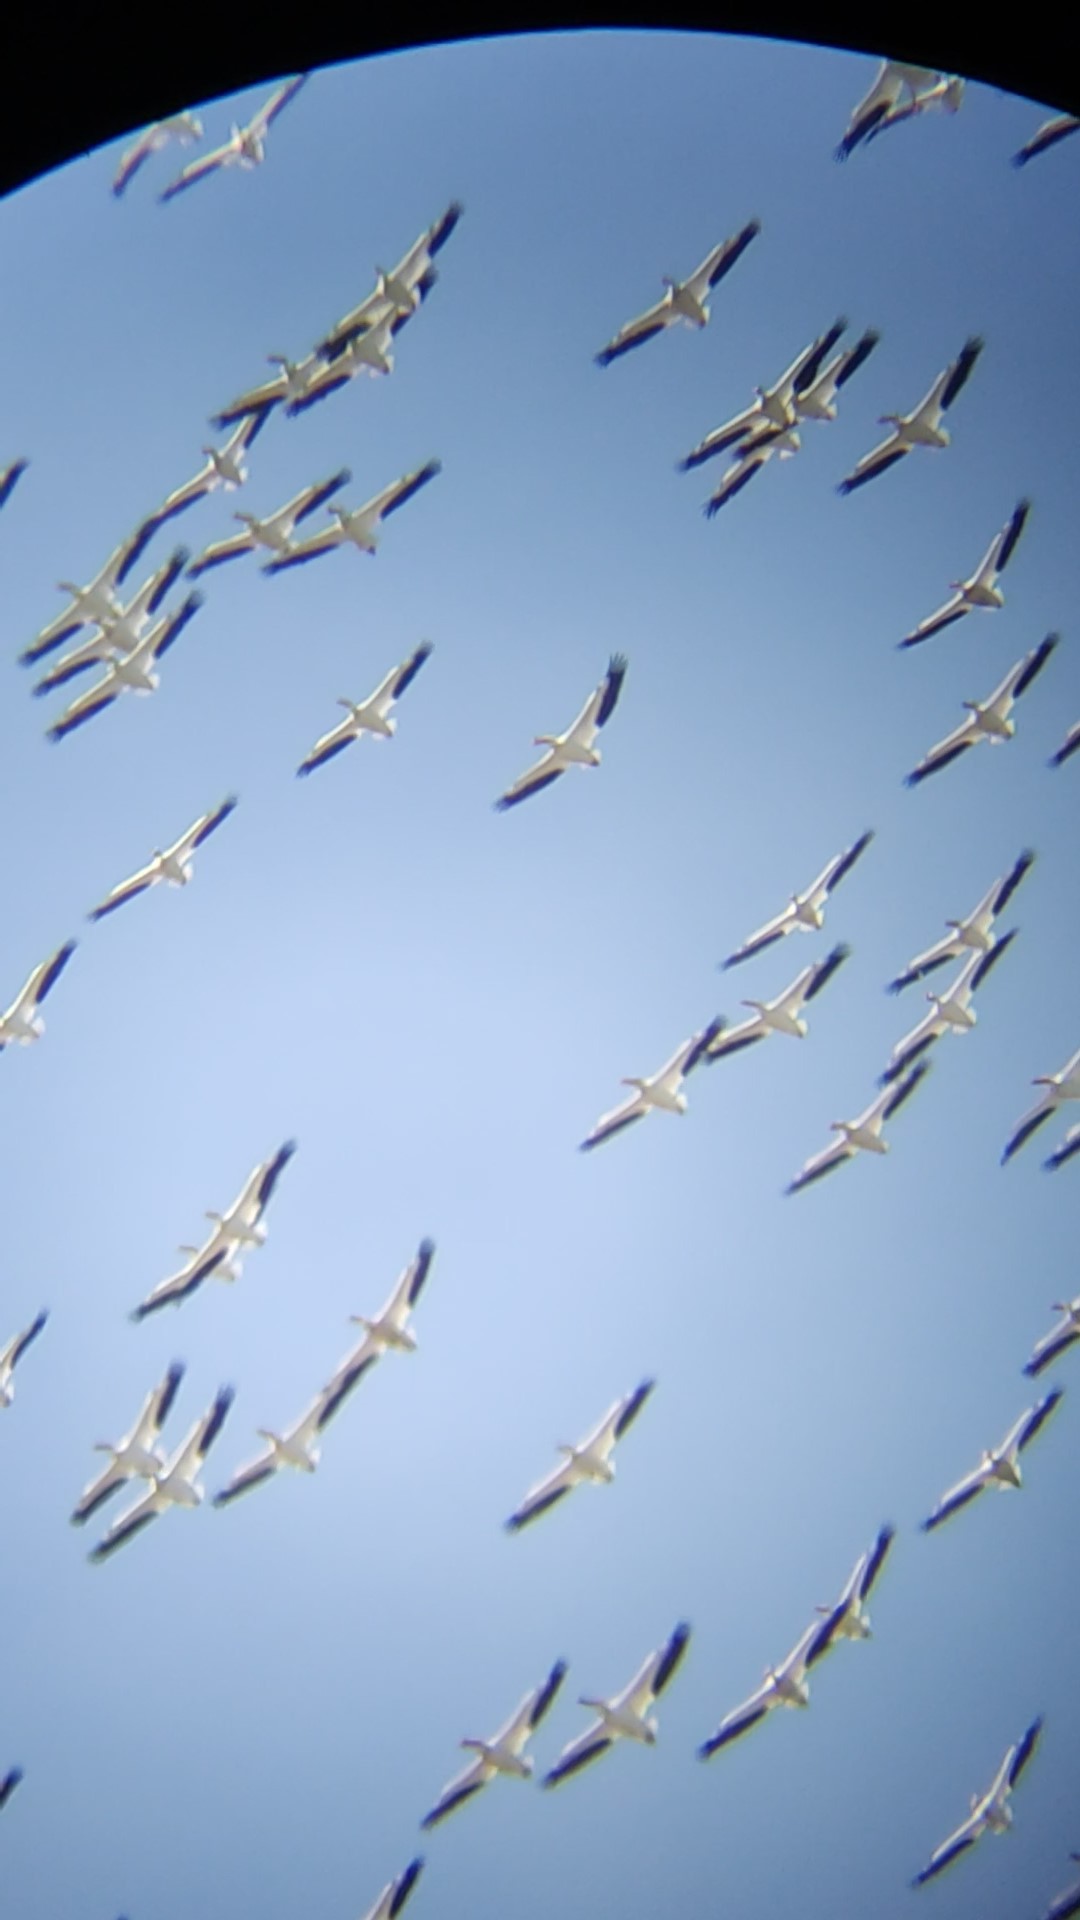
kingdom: Animalia
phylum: Chordata
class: Aves
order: Pelecaniformes
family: Pelecanidae
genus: Pelecanus
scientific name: Pelecanus erythrorhynchos
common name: American white pelican
